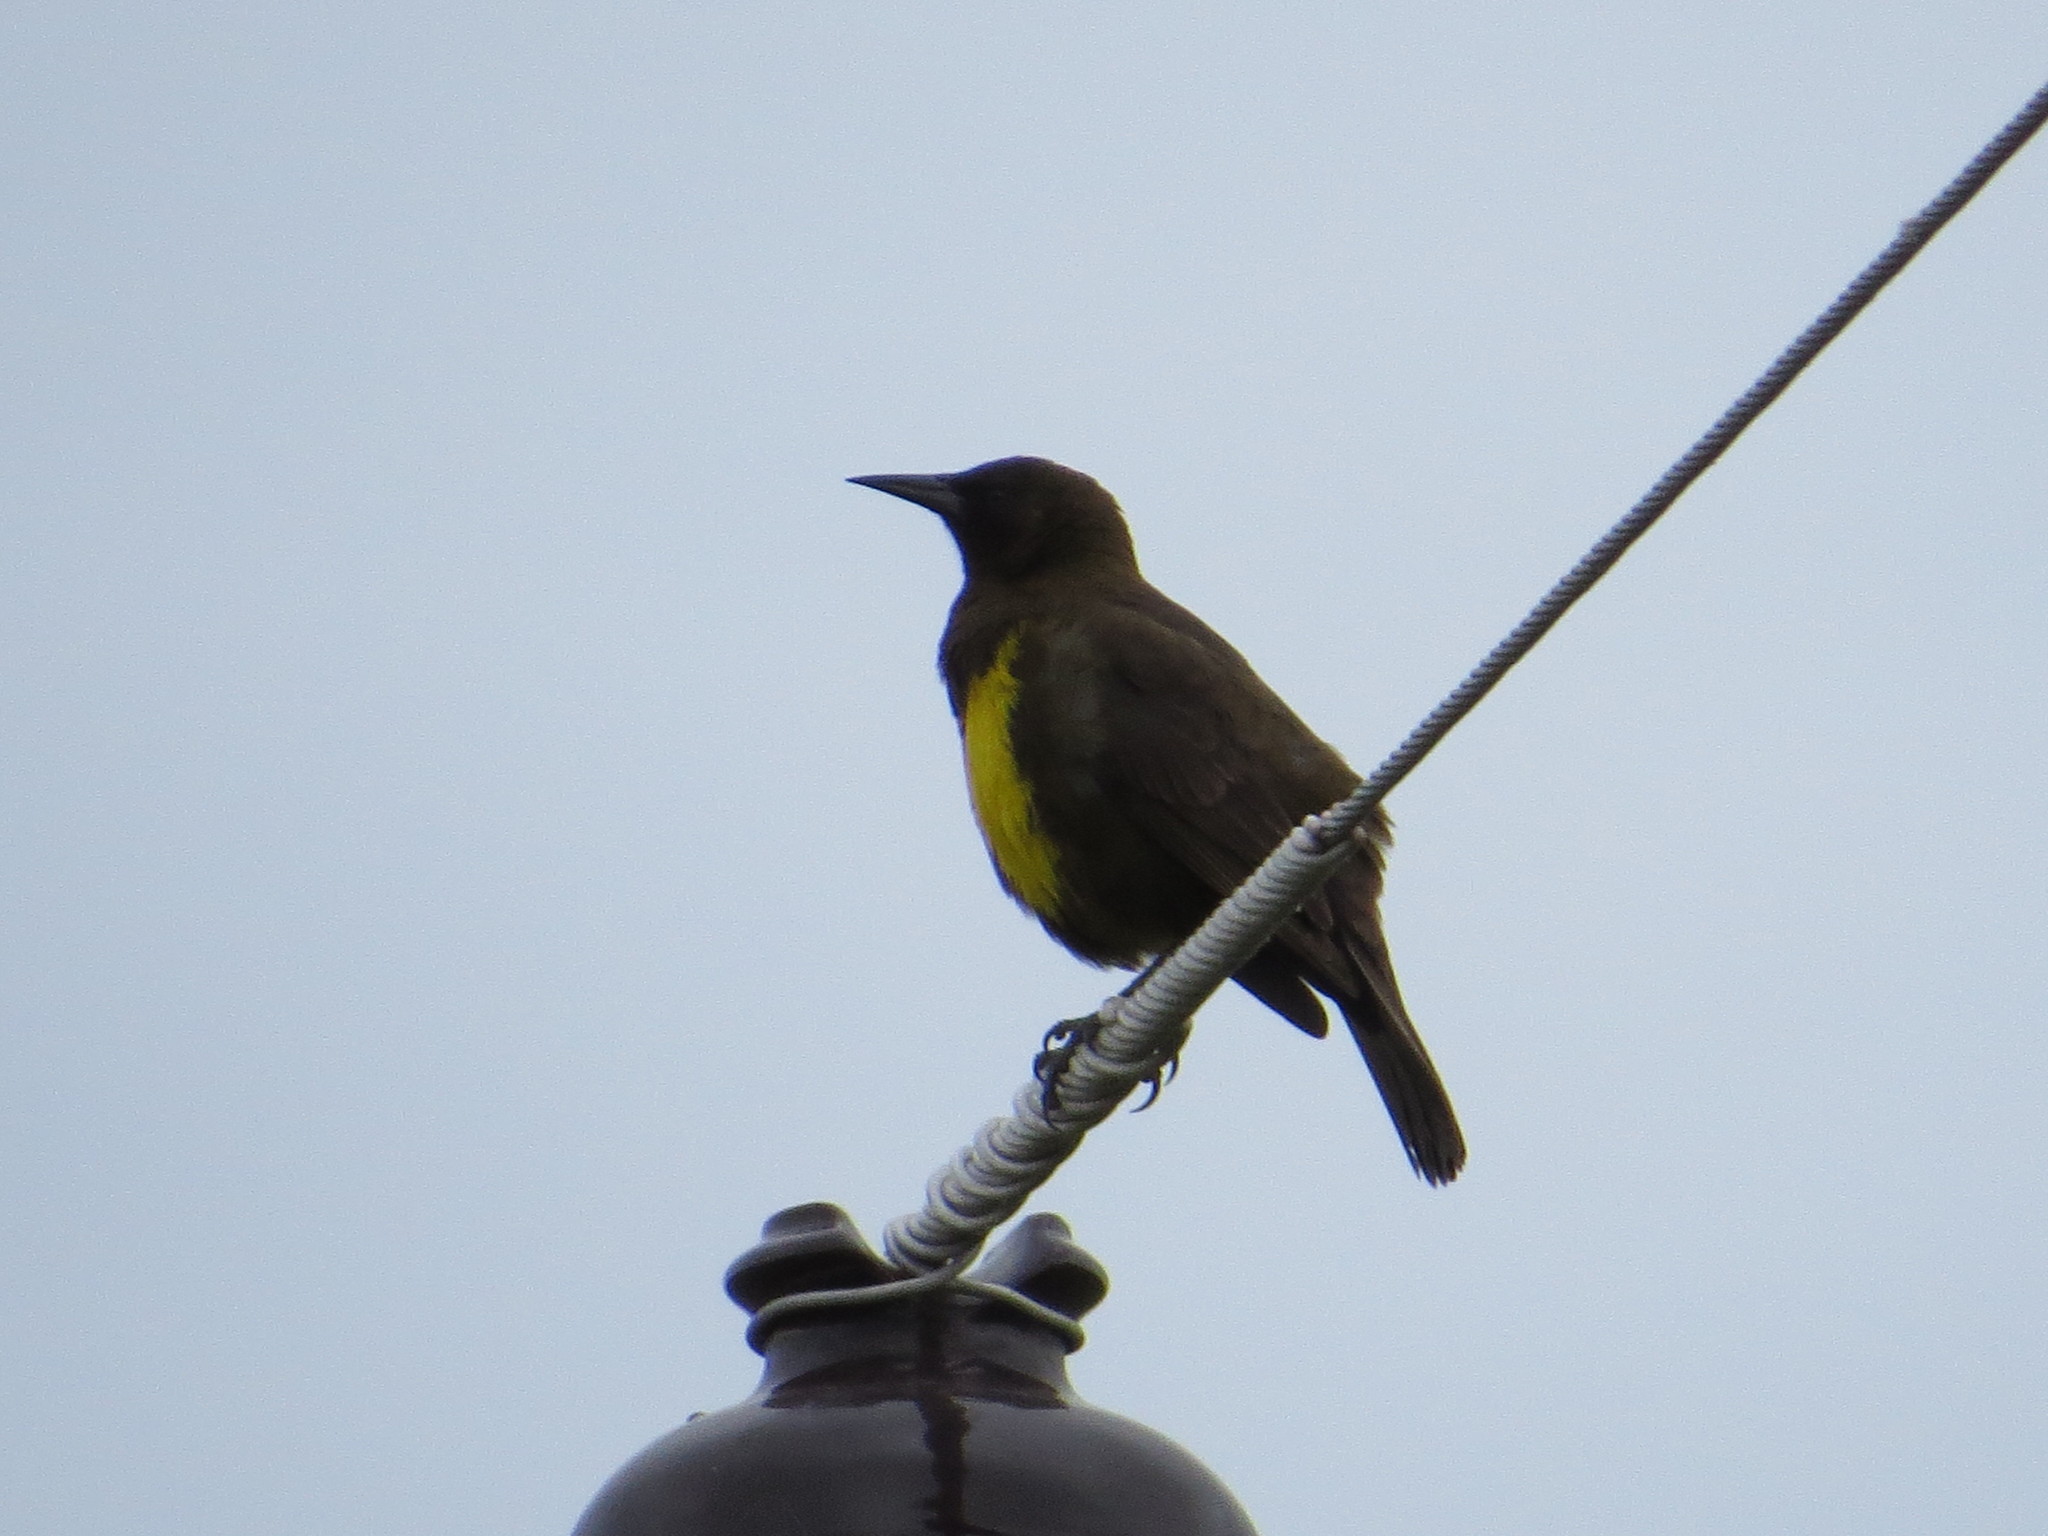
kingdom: Animalia
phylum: Chordata
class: Aves
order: Passeriformes
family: Icteridae
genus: Pseudoleistes
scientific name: Pseudoleistes virescens
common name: Brown-and-yellow marshbird
